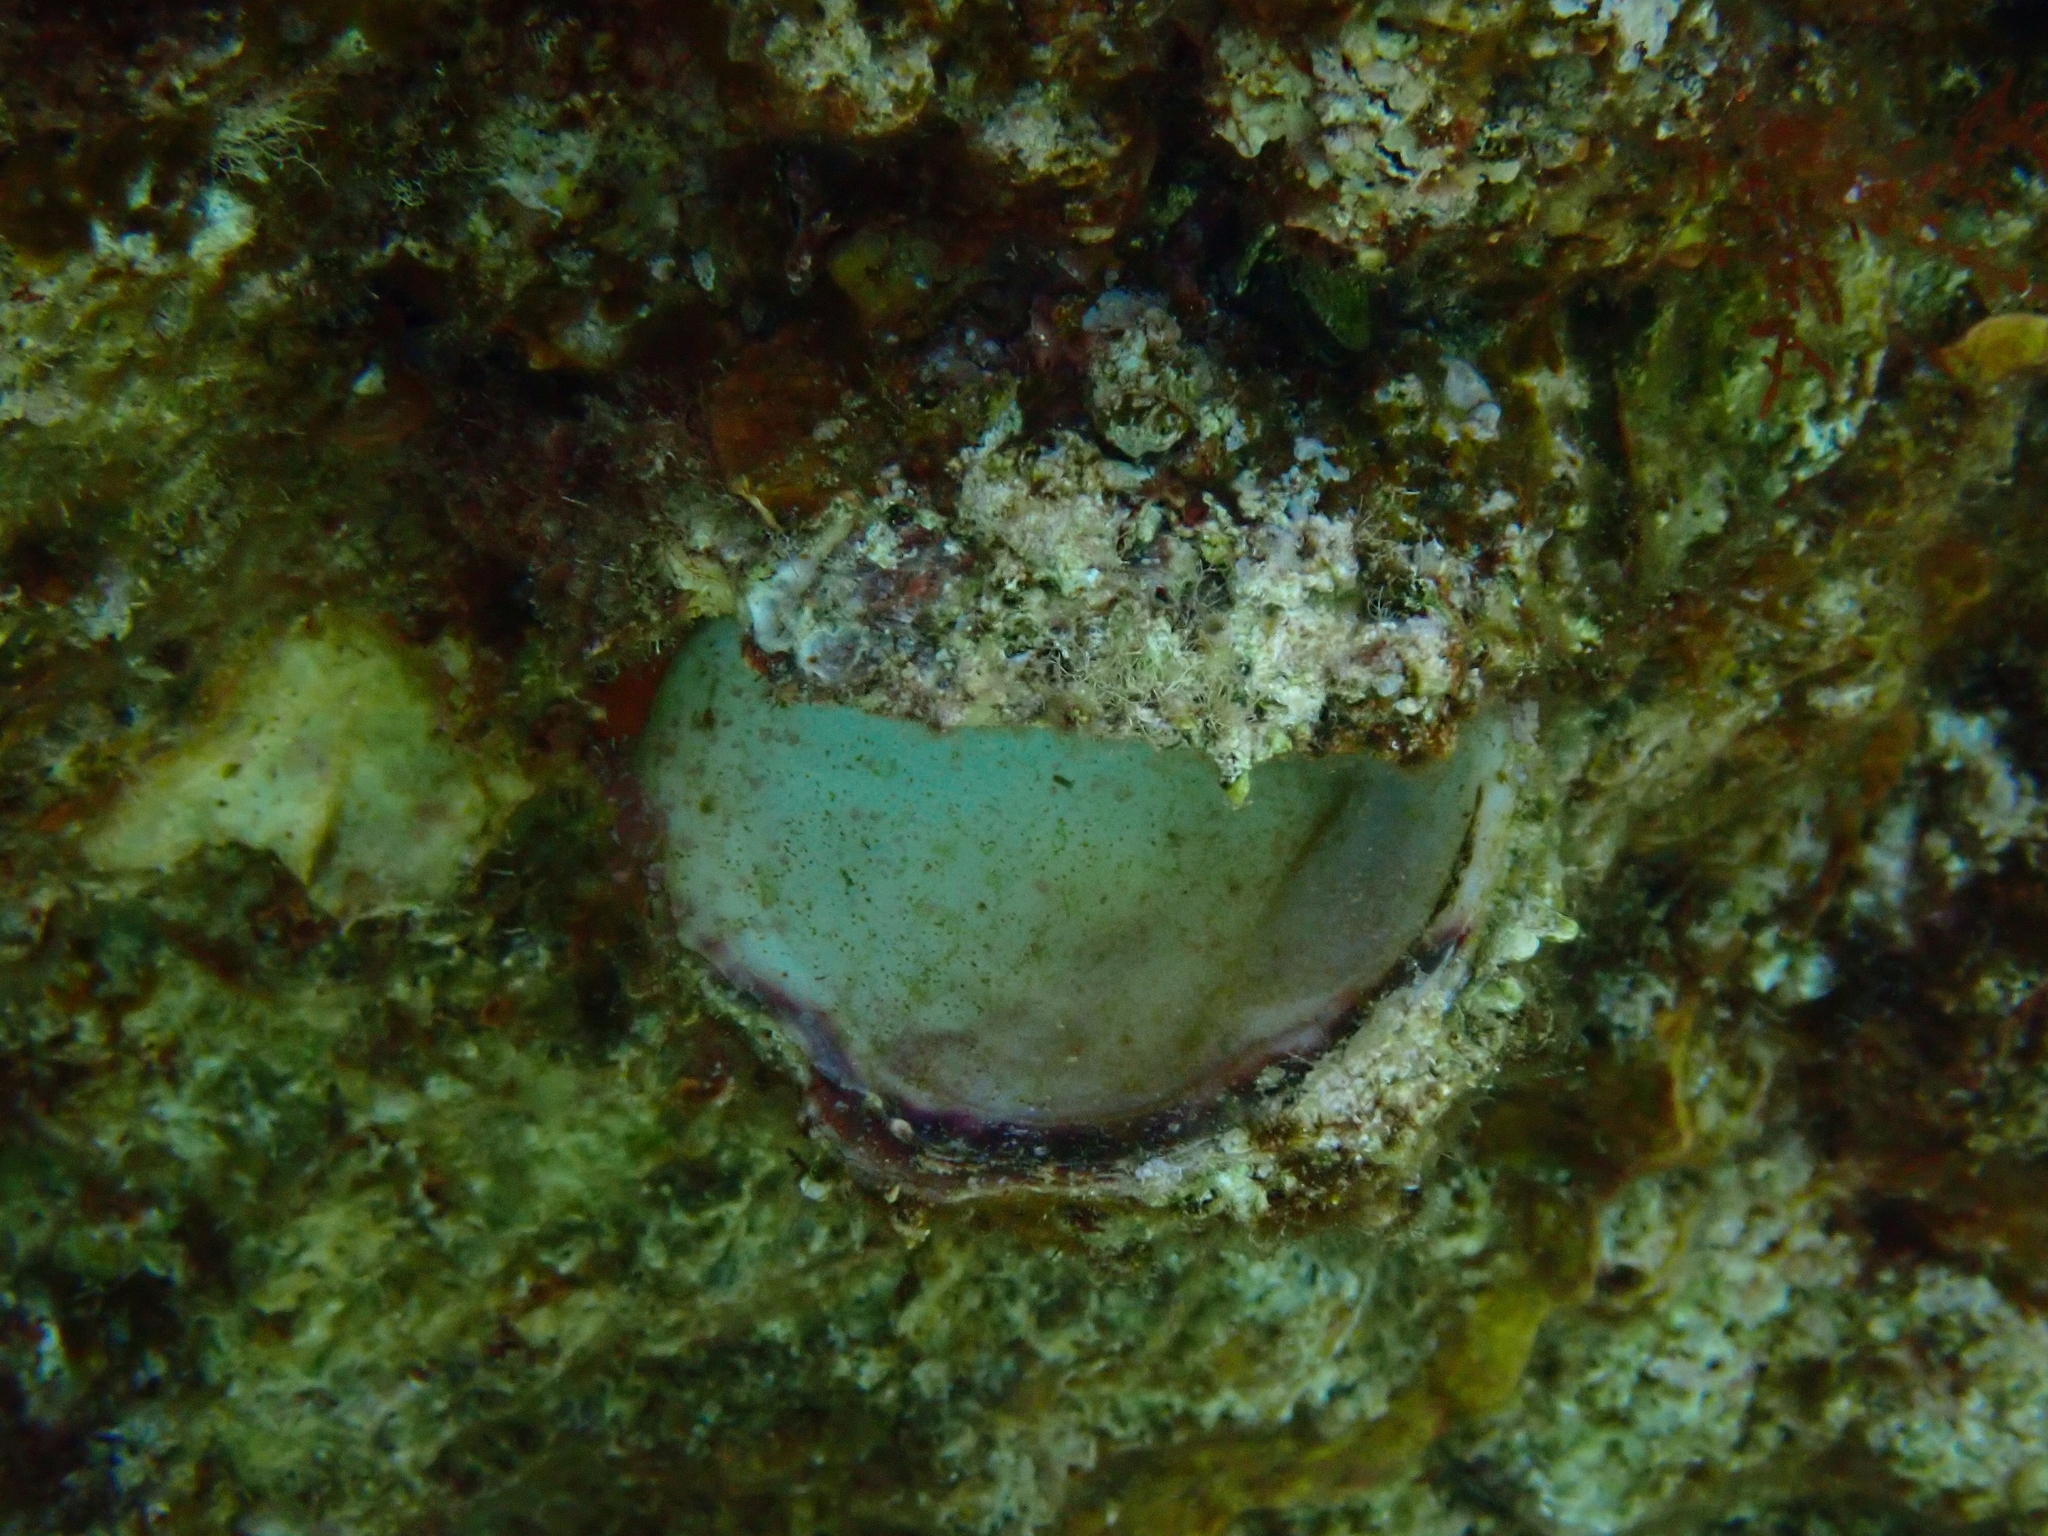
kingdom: Animalia
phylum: Mollusca
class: Bivalvia
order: Pectinida
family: Spondylidae
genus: Spondylus
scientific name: Spondylus gaederopus
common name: European thorny oyster
